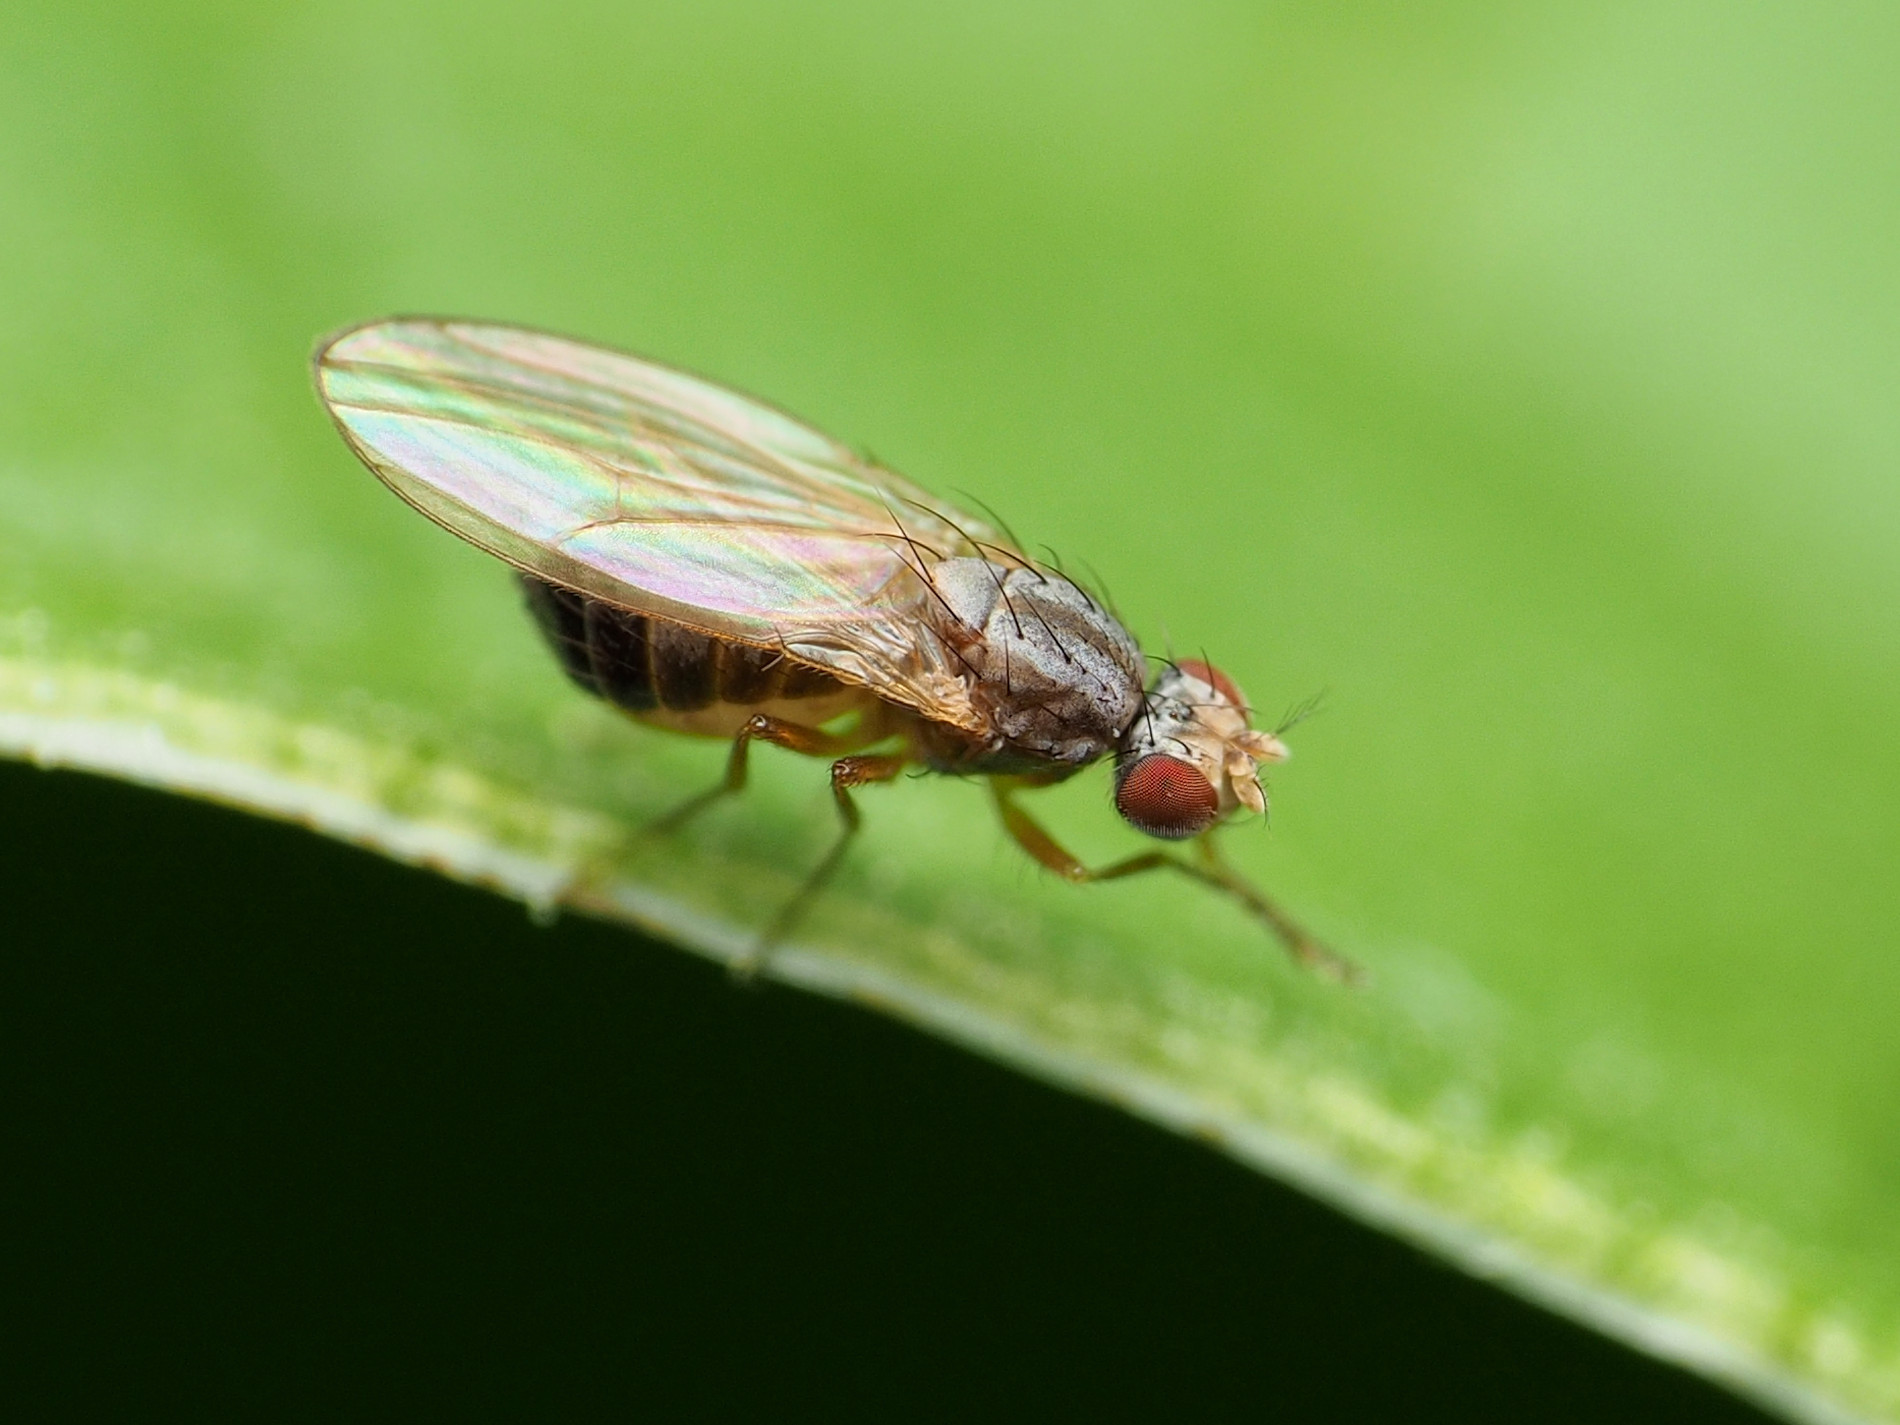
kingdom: Animalia
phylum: Arthropoda
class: Insecta
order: Diptera
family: Drosophilidae
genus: Scaptomyza
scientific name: Scaptomyza pallida
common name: Pomace fly
